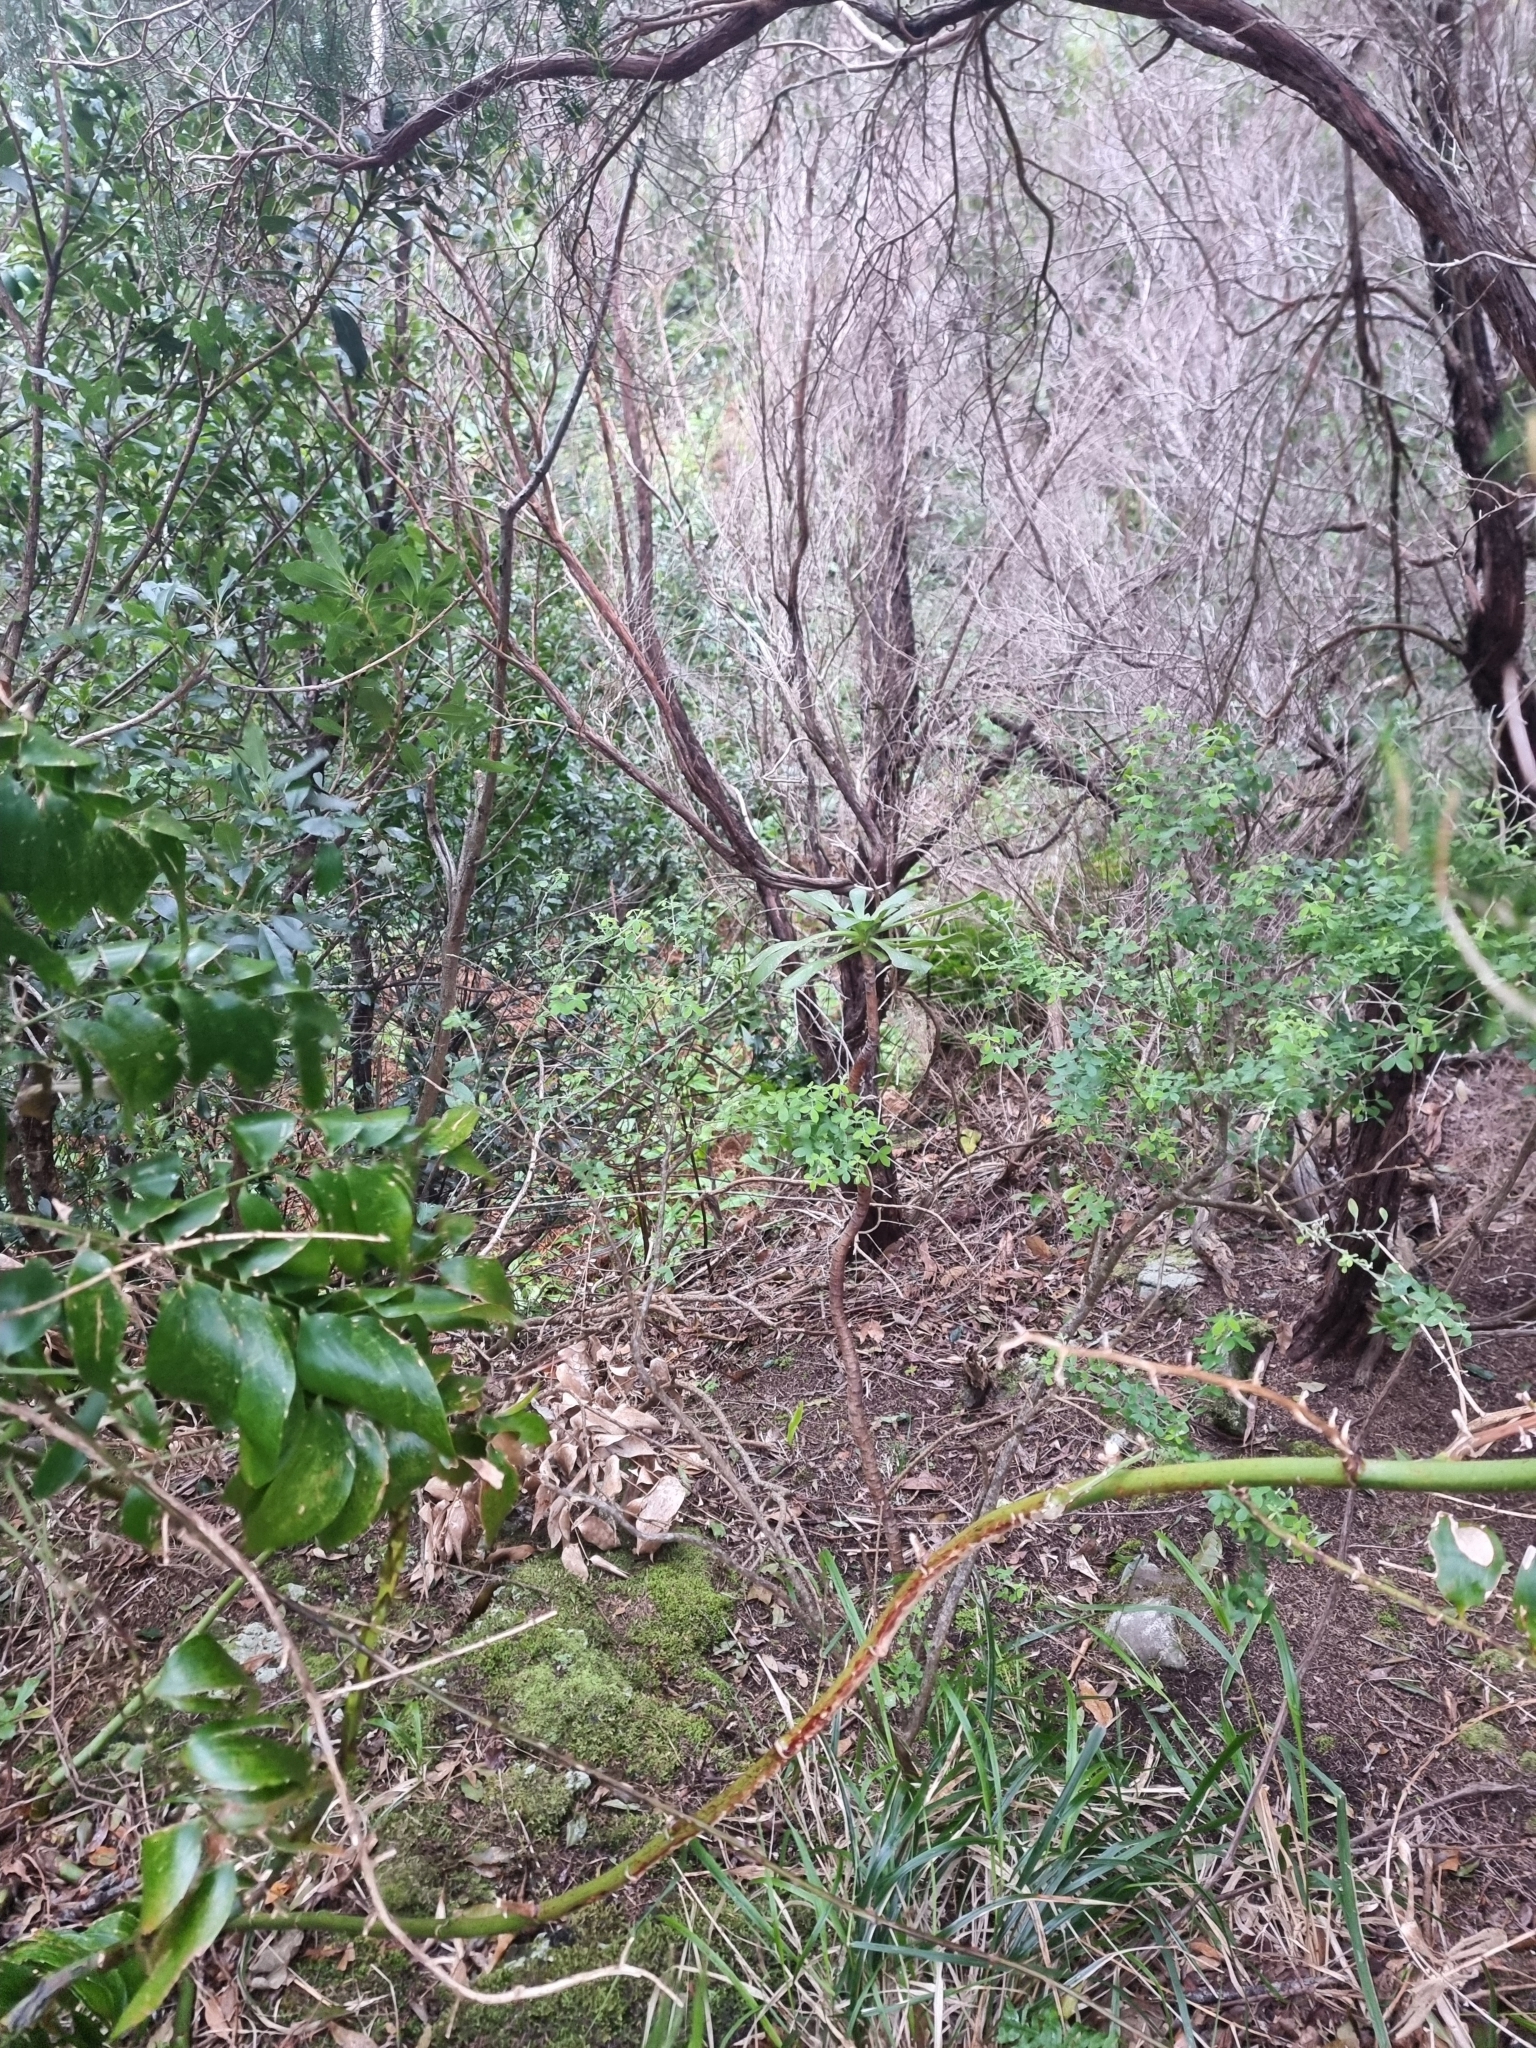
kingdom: Plantae
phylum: Tracheophyta
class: Magnoliopsida
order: Saxifragales
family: Crassulaceae
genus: Aeonium
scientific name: Aeonium glutinosum
